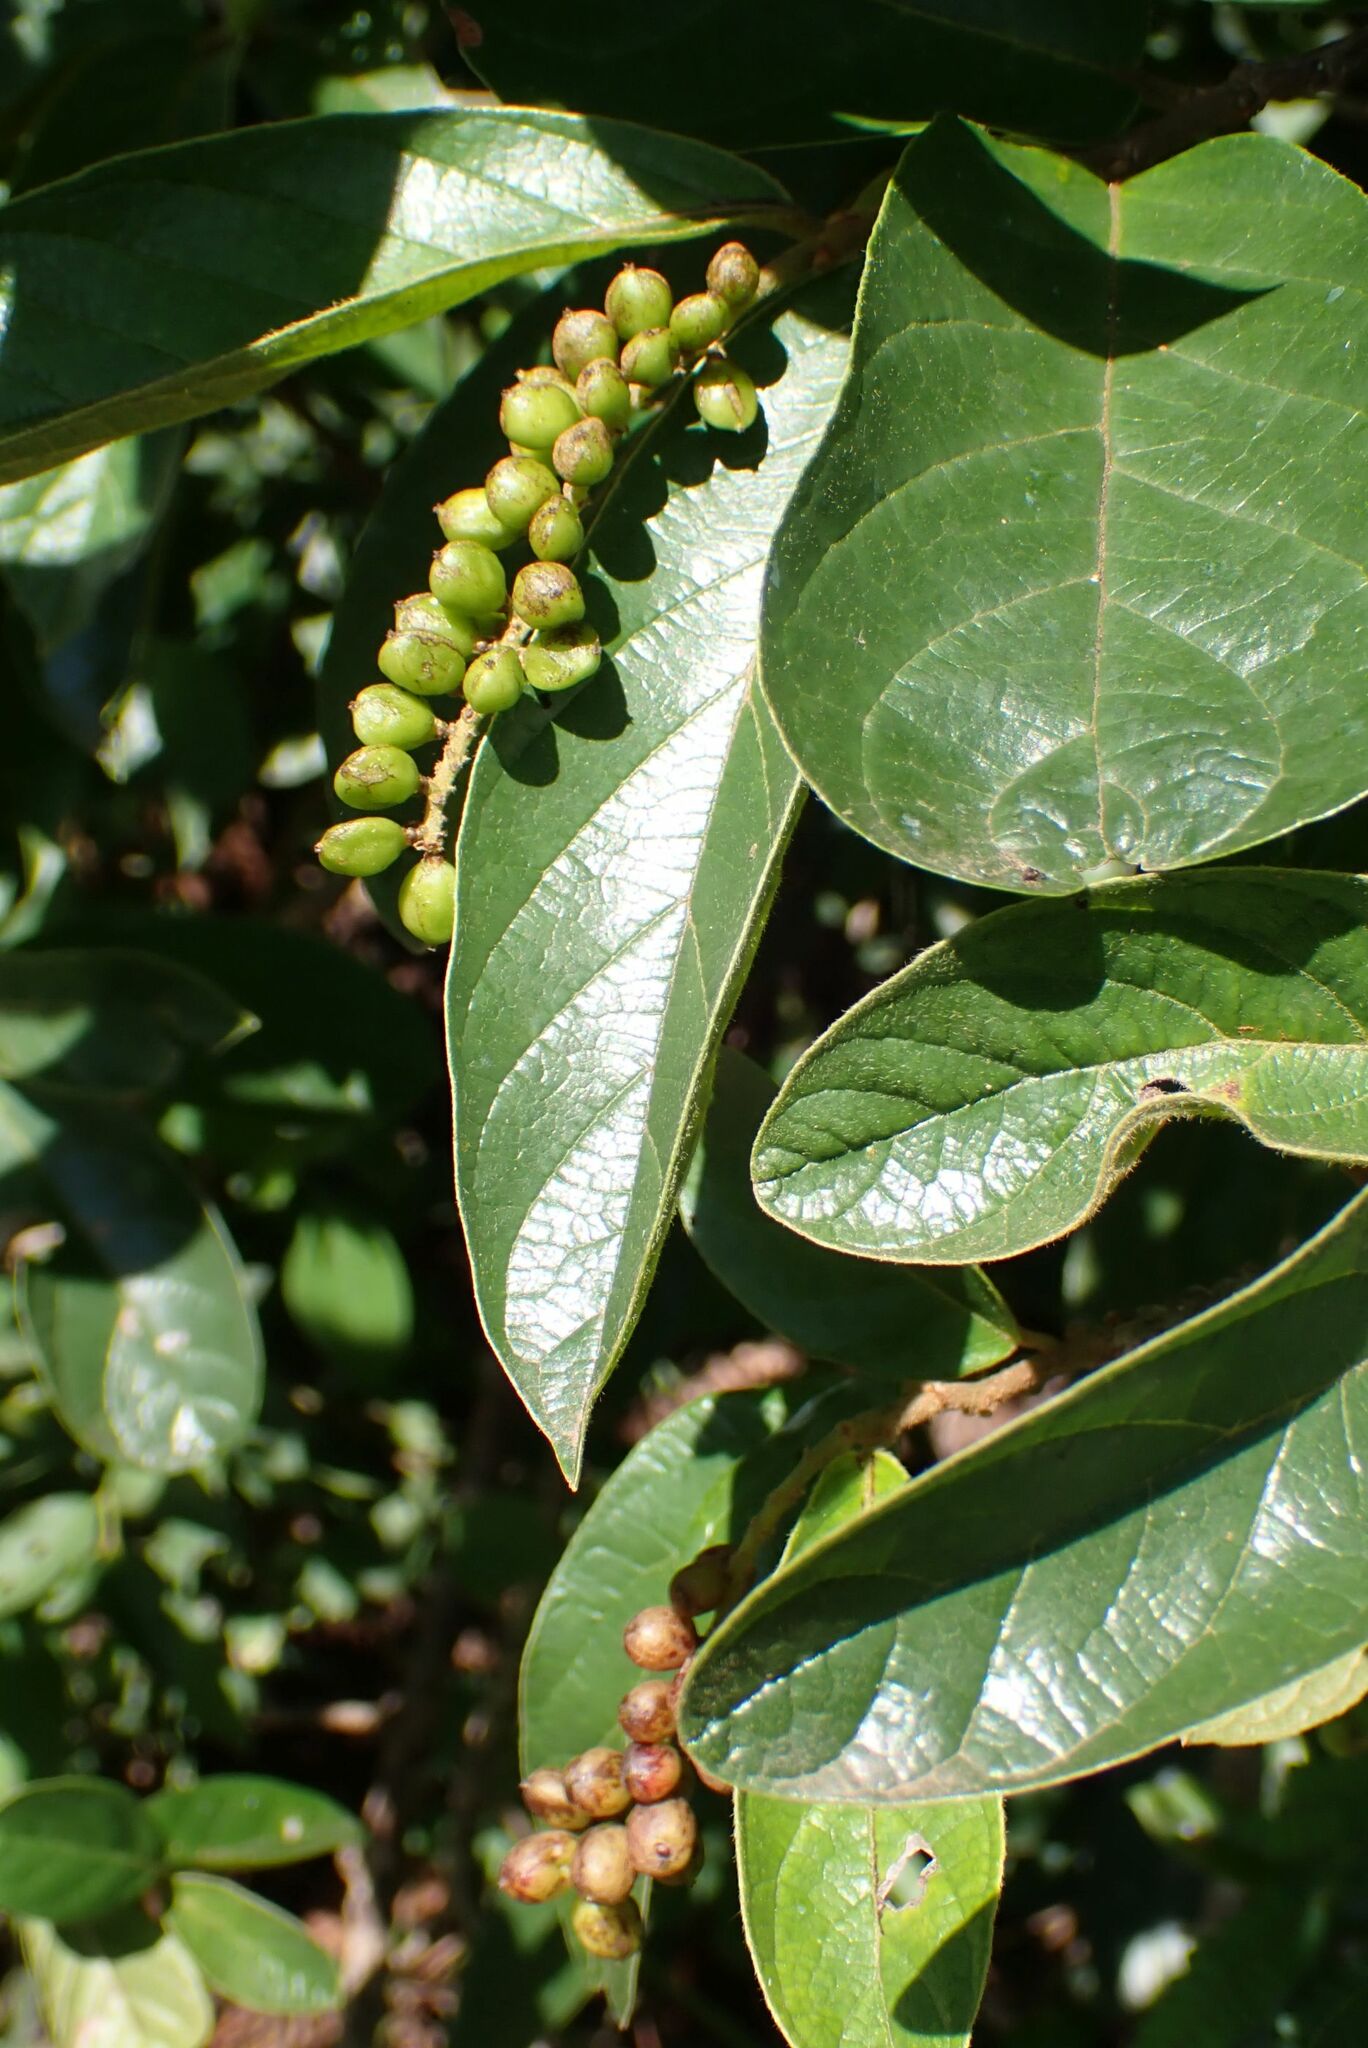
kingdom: Plantae
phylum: Tracheophyta
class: Magnoliopsida
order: Malpighiales
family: Phyllanthaceae
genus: Antidesma
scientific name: Antidesma venosum
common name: Tassel-berry
